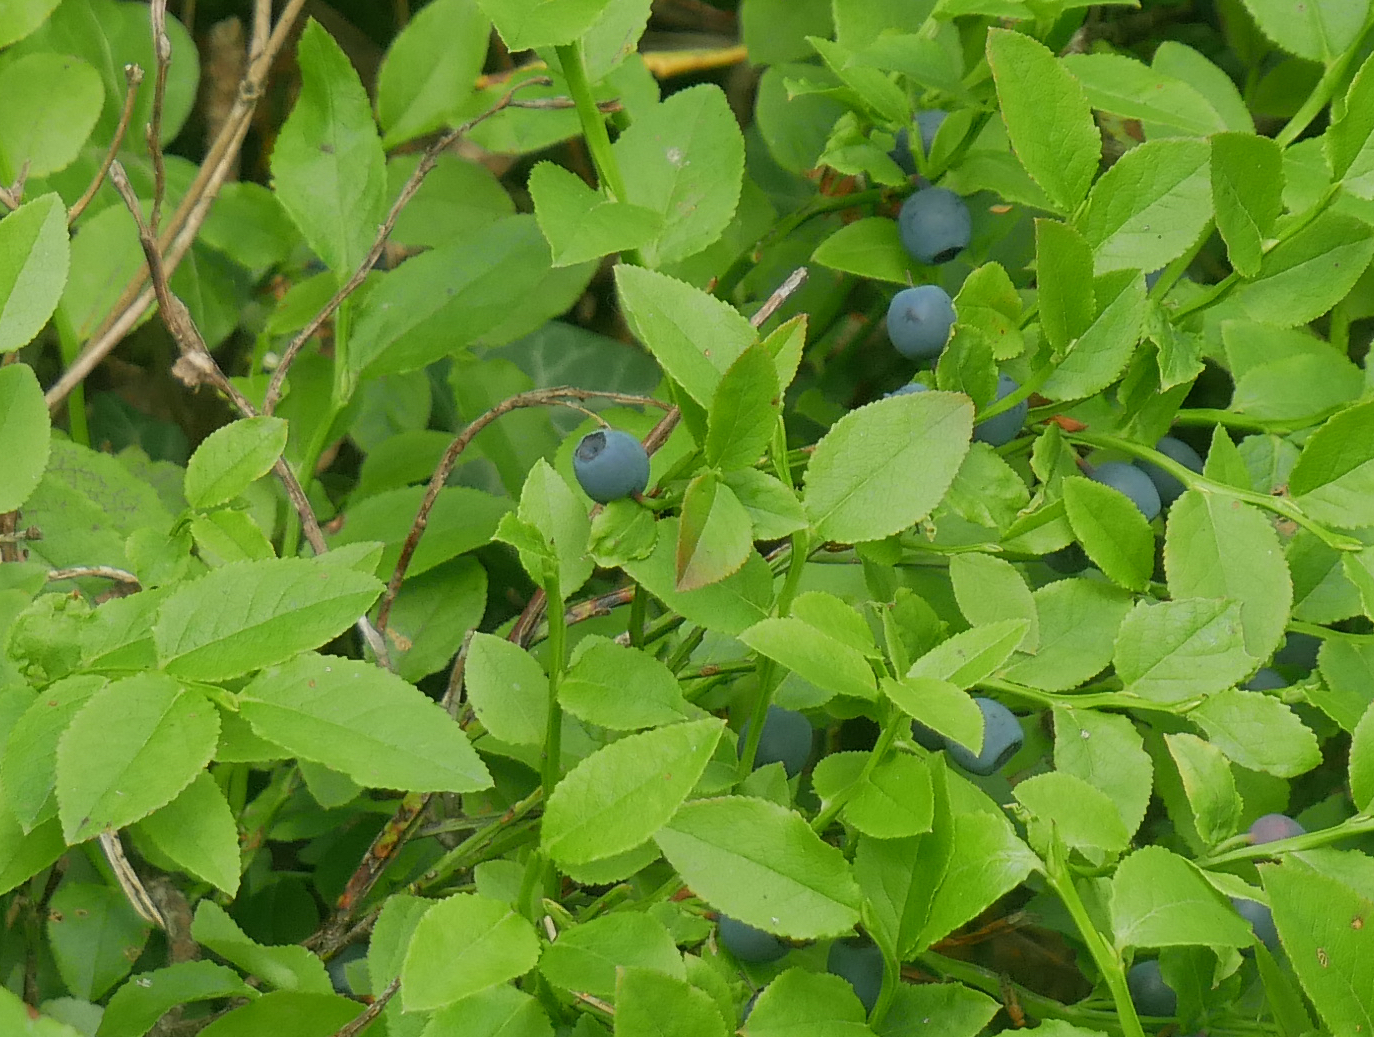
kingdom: Plantae
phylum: Tracheophyta
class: Magnoliopsida
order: Ericales
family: Ericaceae
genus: Vaccinium
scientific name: Vaccinium myrtillus
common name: Bilberry
